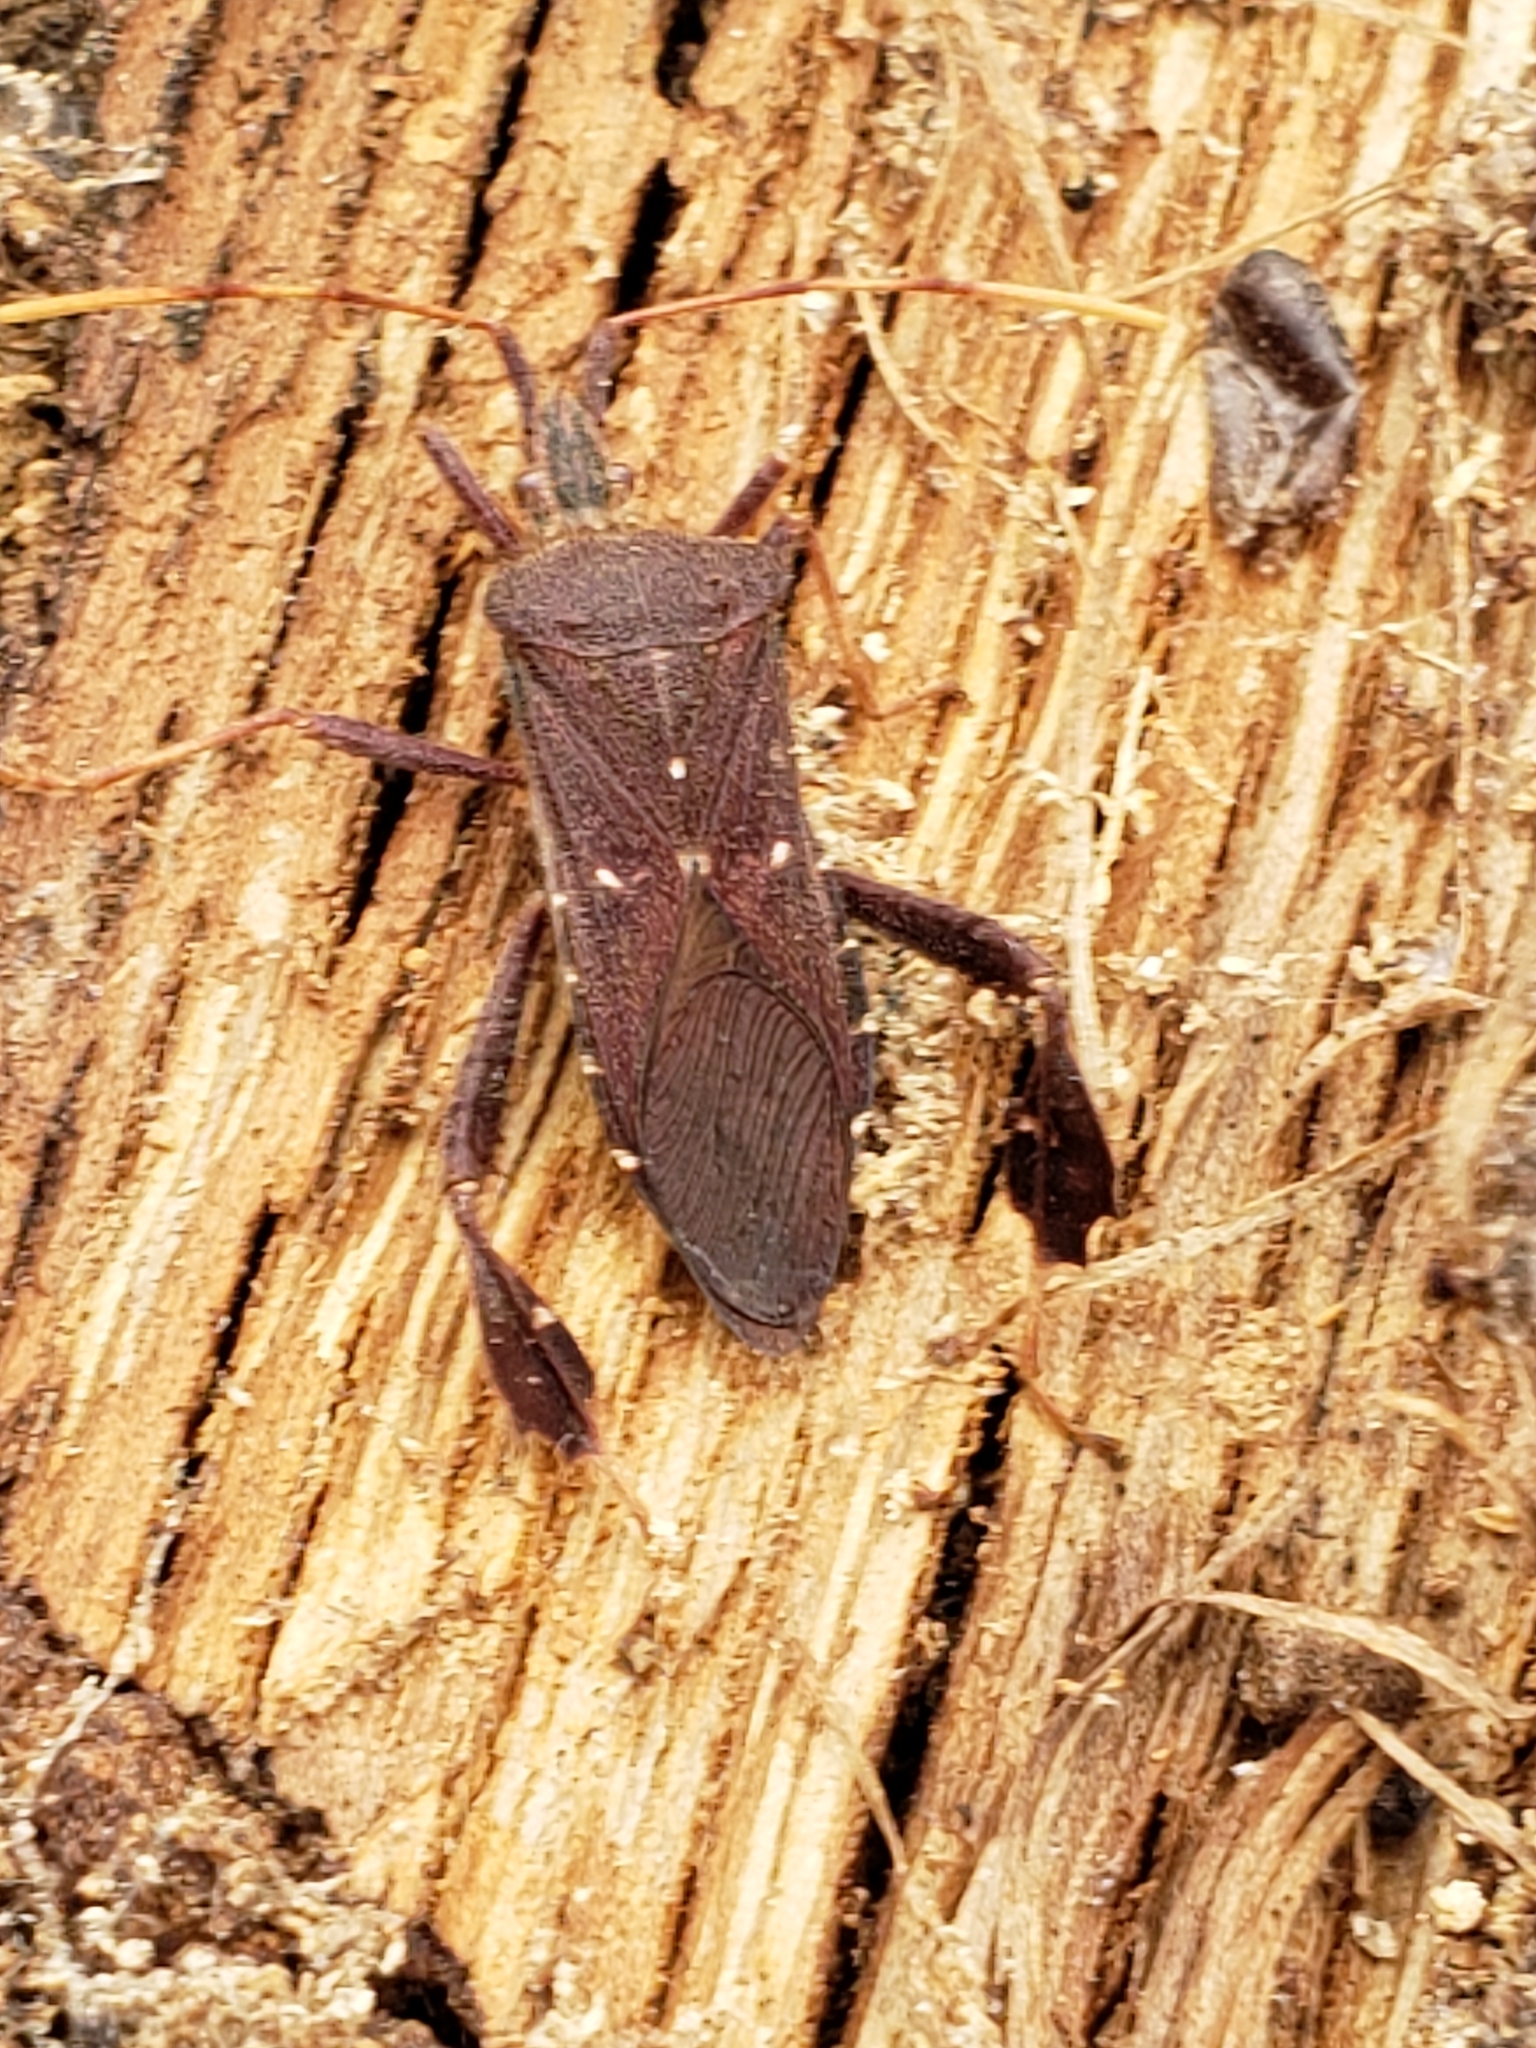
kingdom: Animalia
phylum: Arthropoda
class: Insecta
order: Hemiptera
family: Coreidae
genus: Leptoglossus
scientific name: Leptoglossus oppositus
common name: Northern leaf-footed bug
